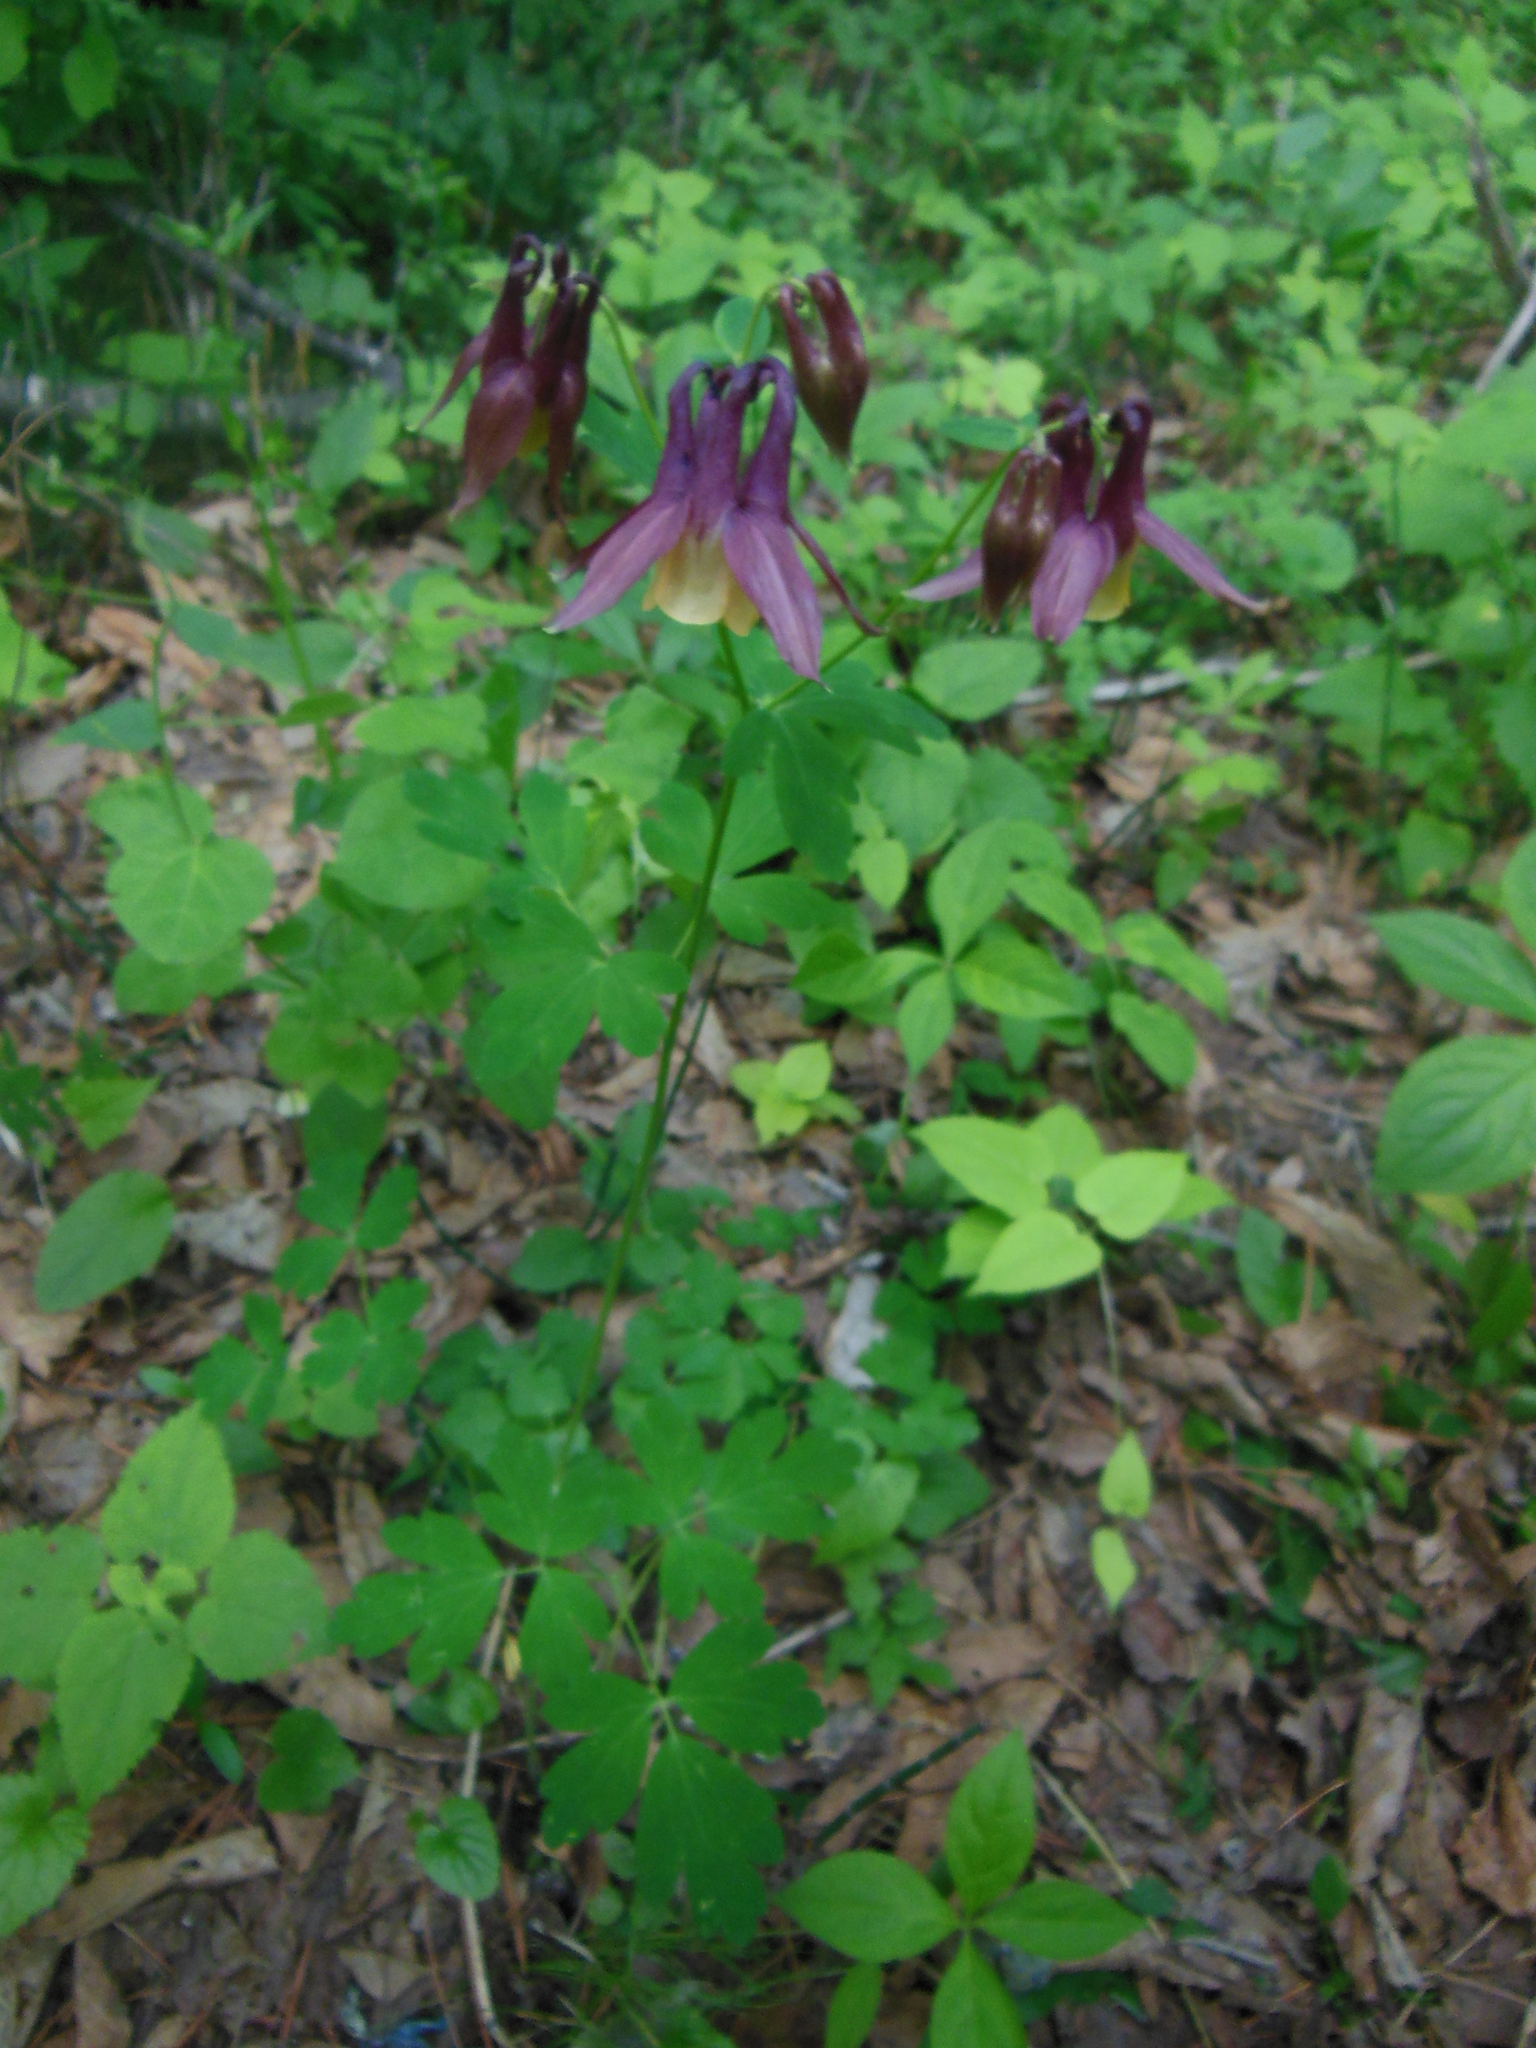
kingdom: Plantae
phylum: Tracheophyta
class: Magnoliopsida
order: Ranunculales
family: Ranunculaceae
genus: Aquilegia
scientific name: Aquilegia oxysepala
